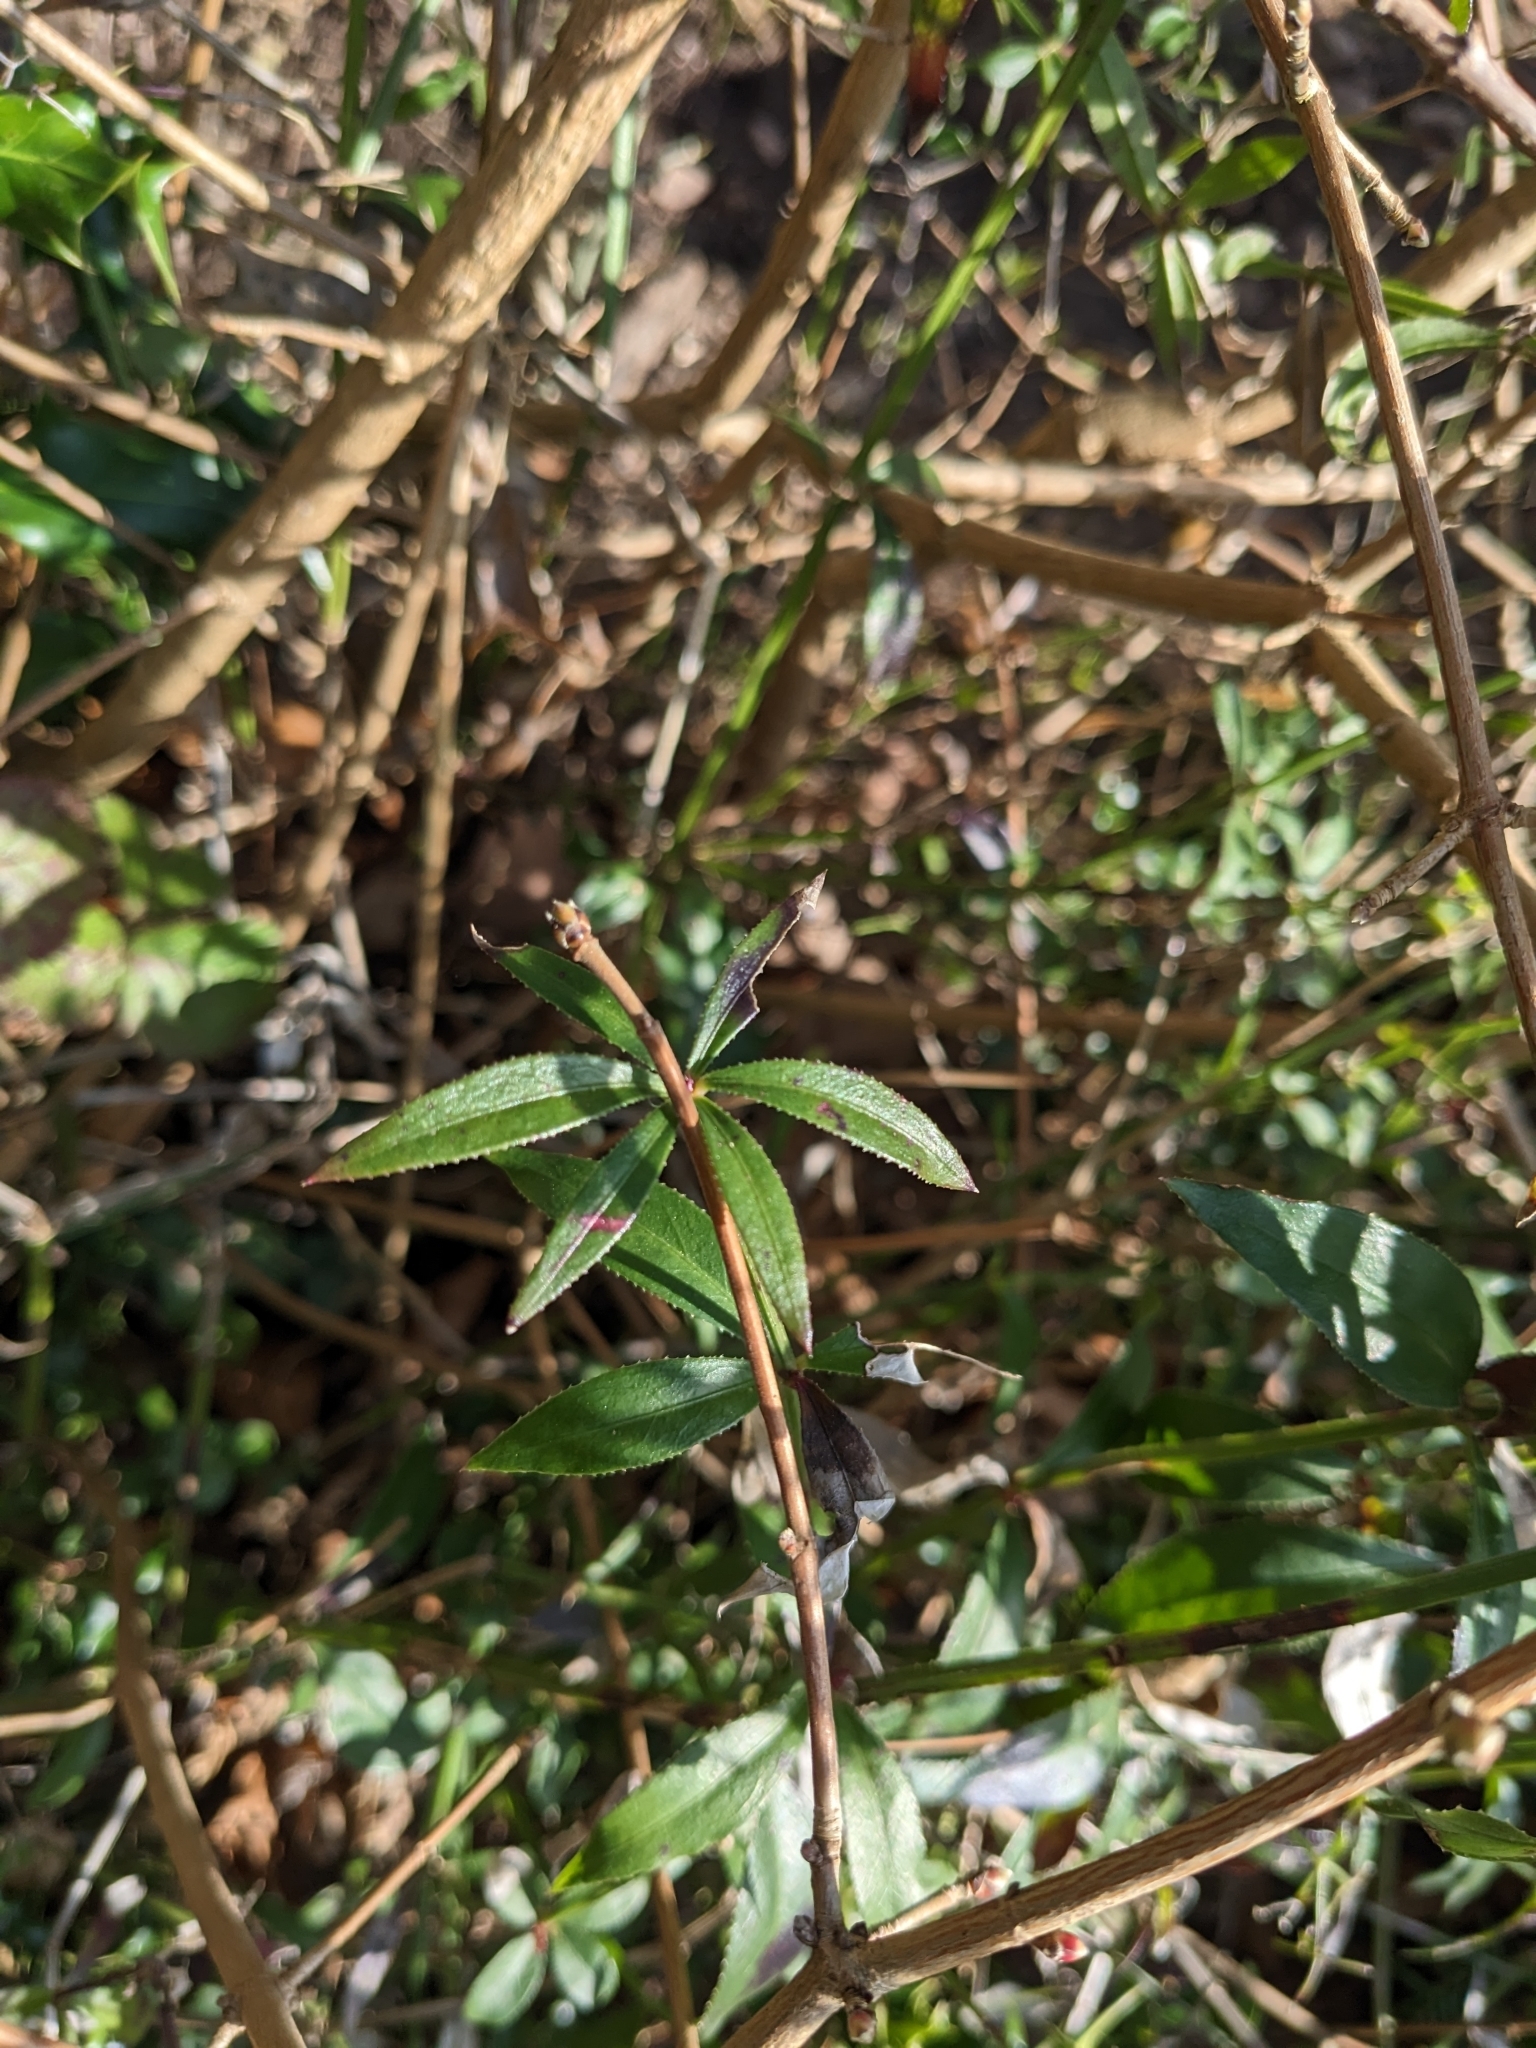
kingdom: Plantae
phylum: Tracheophyta
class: Magnoliopsida
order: Gentianales
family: Rubiaceae
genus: Rubia
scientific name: Rubia peregrina
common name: Wild madder
